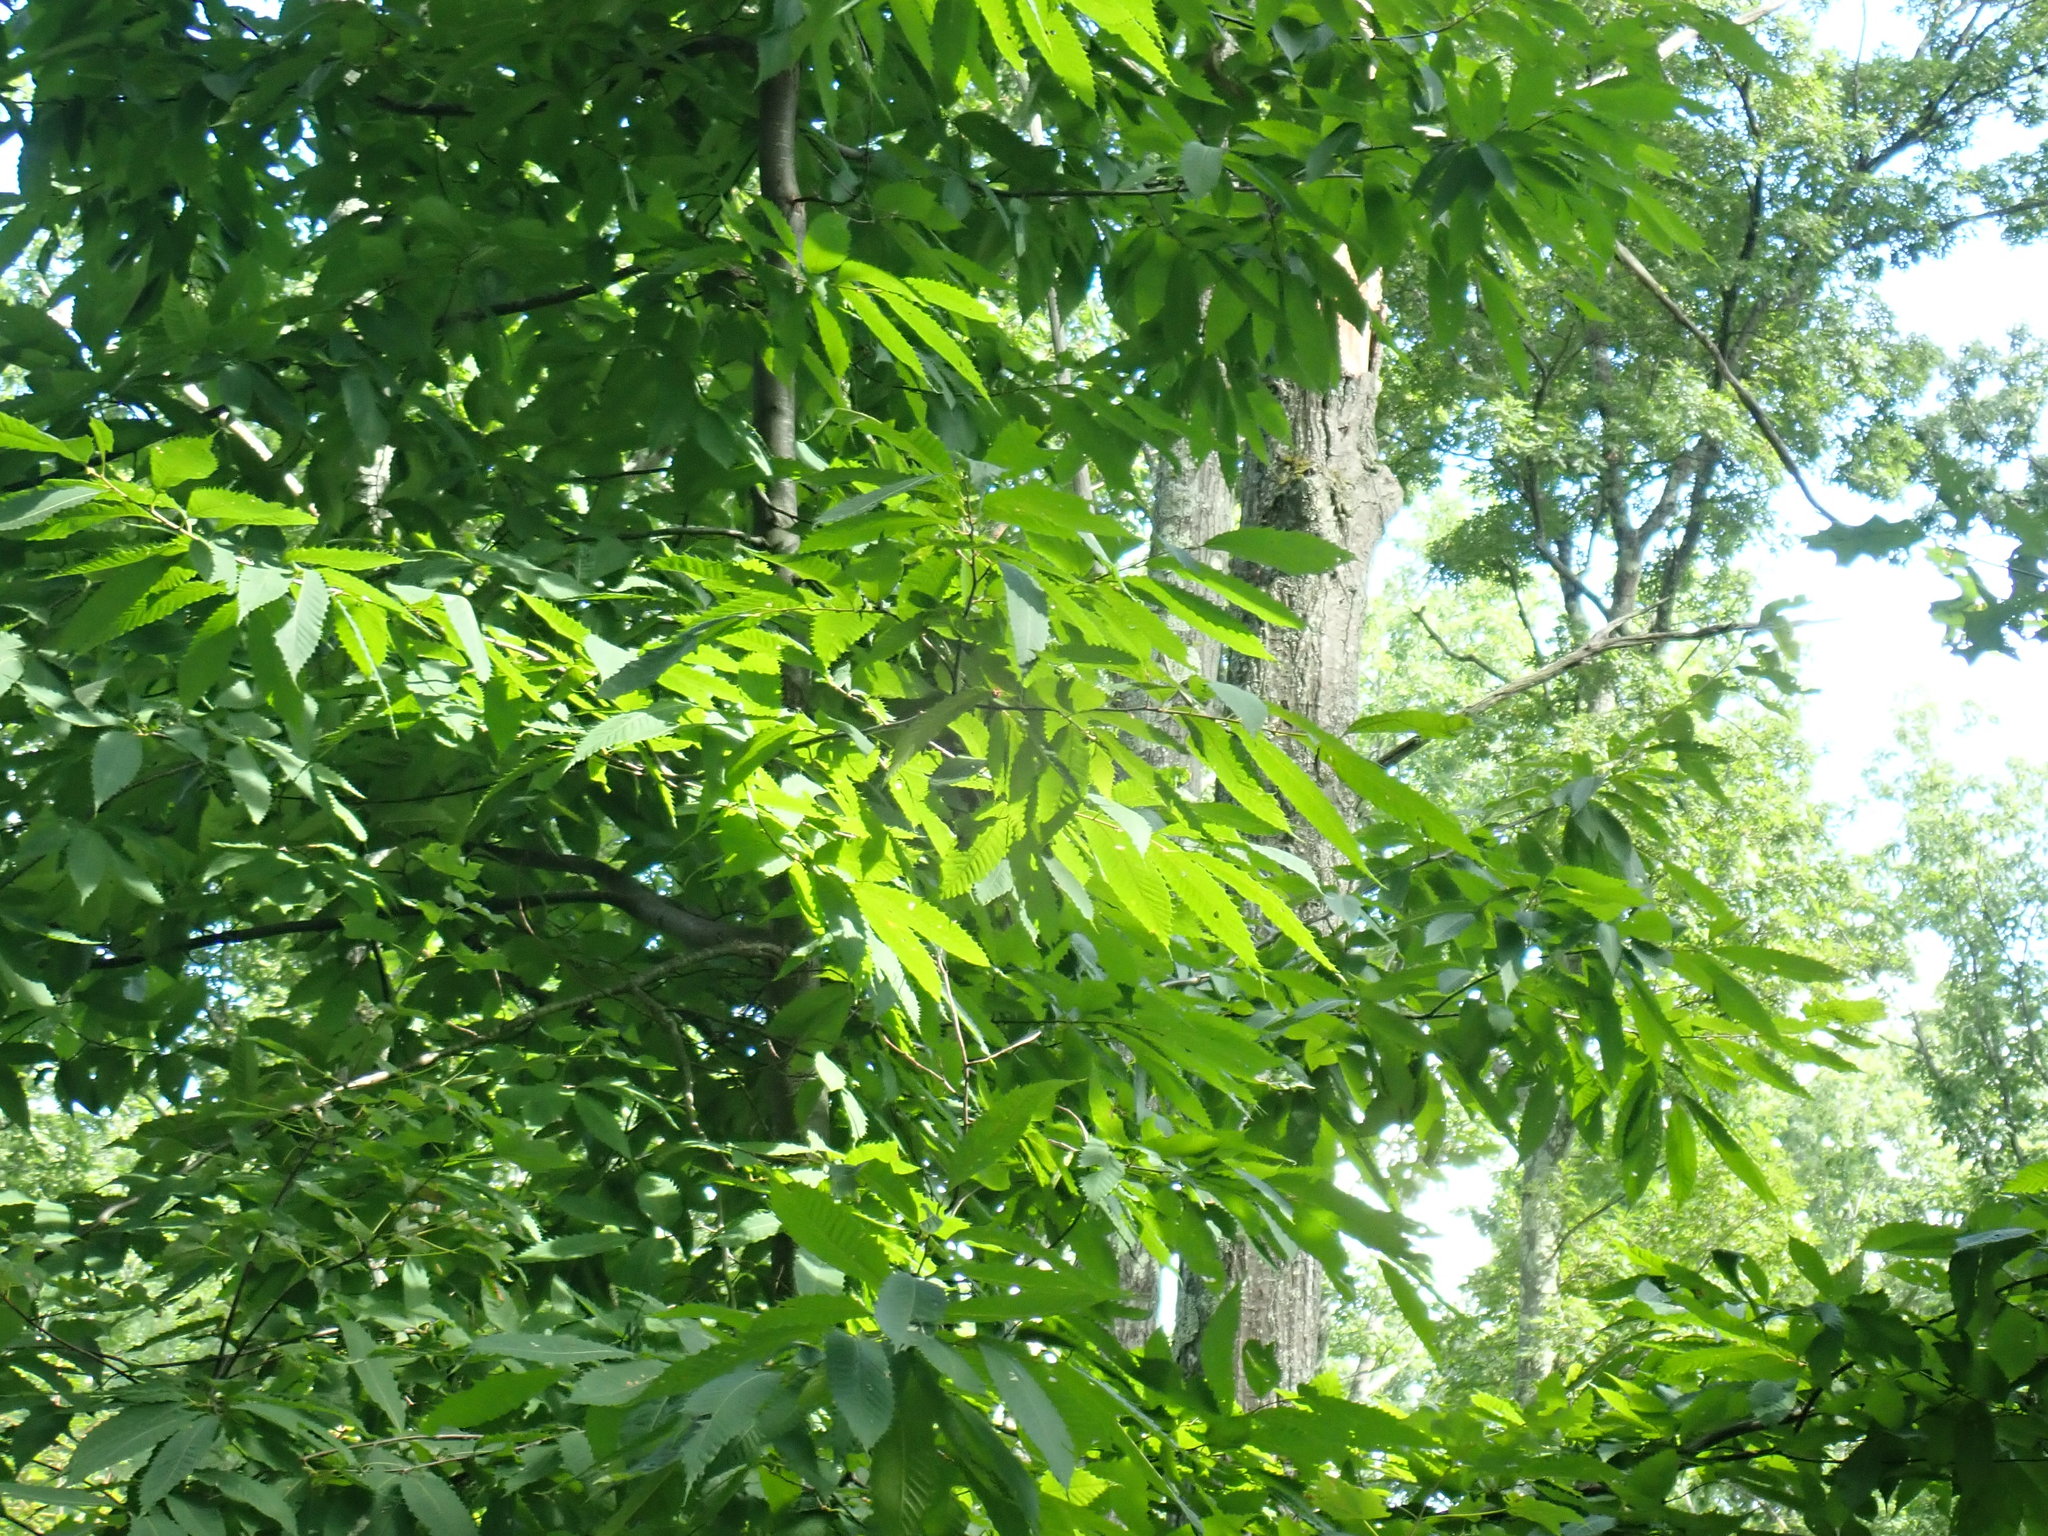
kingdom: Plantae
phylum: Tracheophyta
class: Magnoliopsida
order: Fagales
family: Fagaceae
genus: Castanea
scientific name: Castanea dentata
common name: American chestnut
